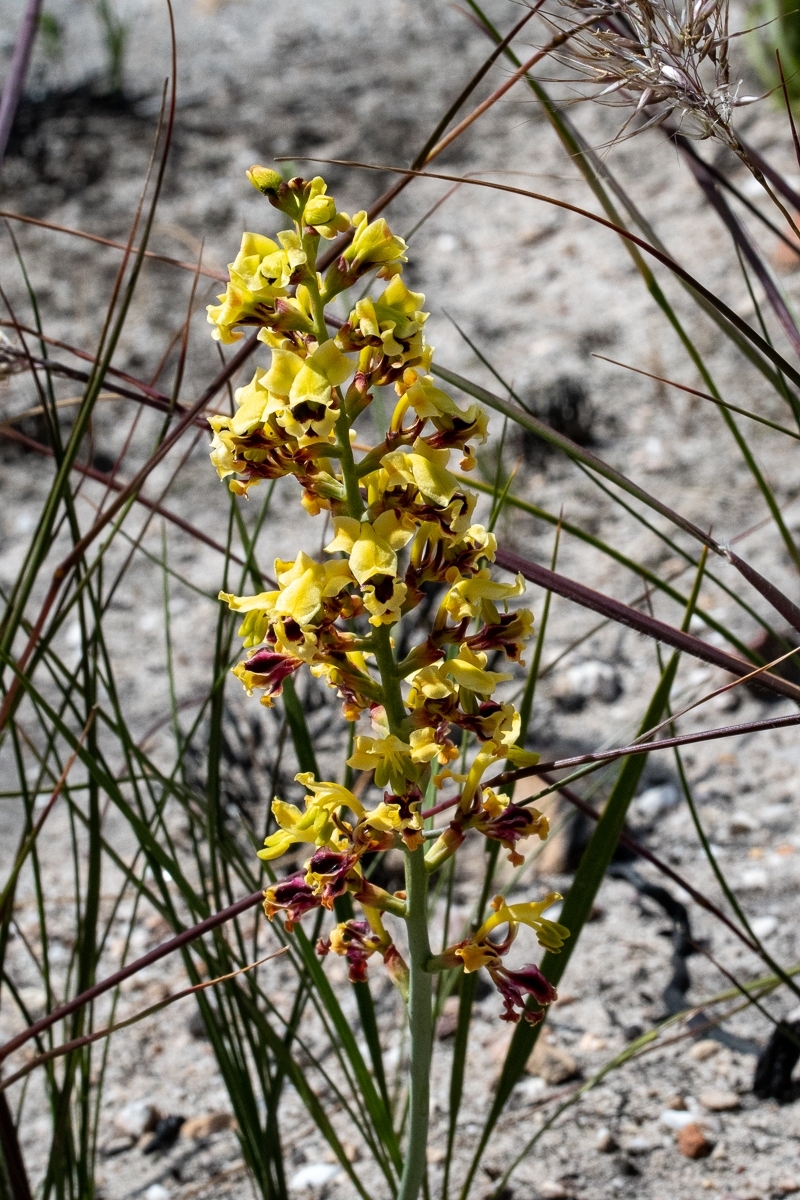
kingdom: Plantae
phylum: Tracheophyta
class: Liliopsida
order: Asparagales
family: Iridaceae
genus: Tritoniopsis
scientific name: Tritoniopsis parviflora
